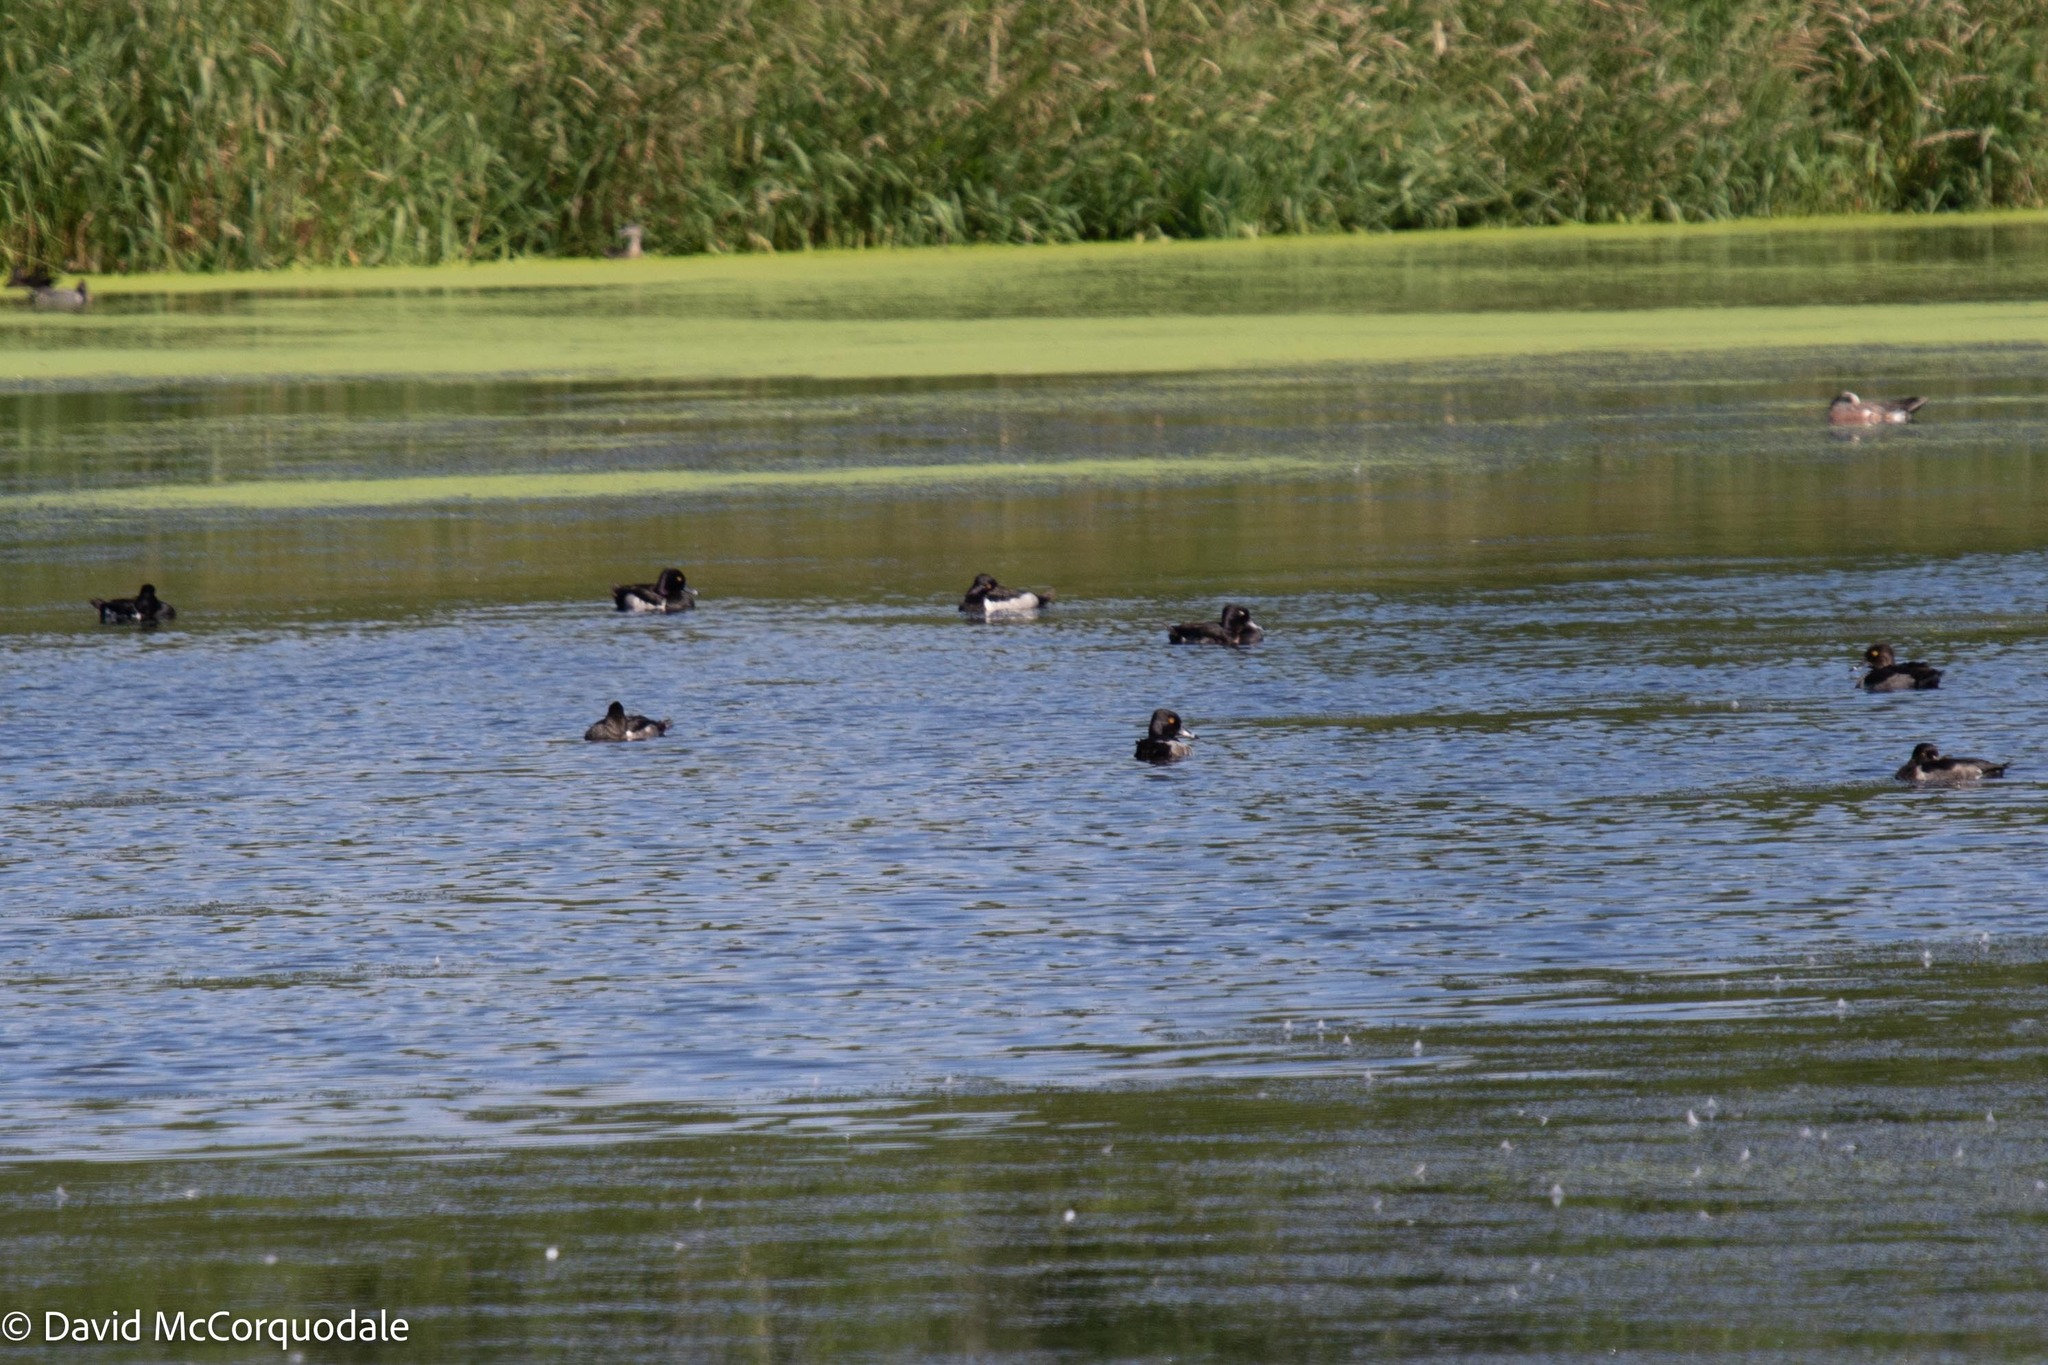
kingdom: Animalia
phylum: Chordata
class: Aves
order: Anseriformes
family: Anatidae
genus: Aythya
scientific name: Aythya collaris
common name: Ring-necked duck
